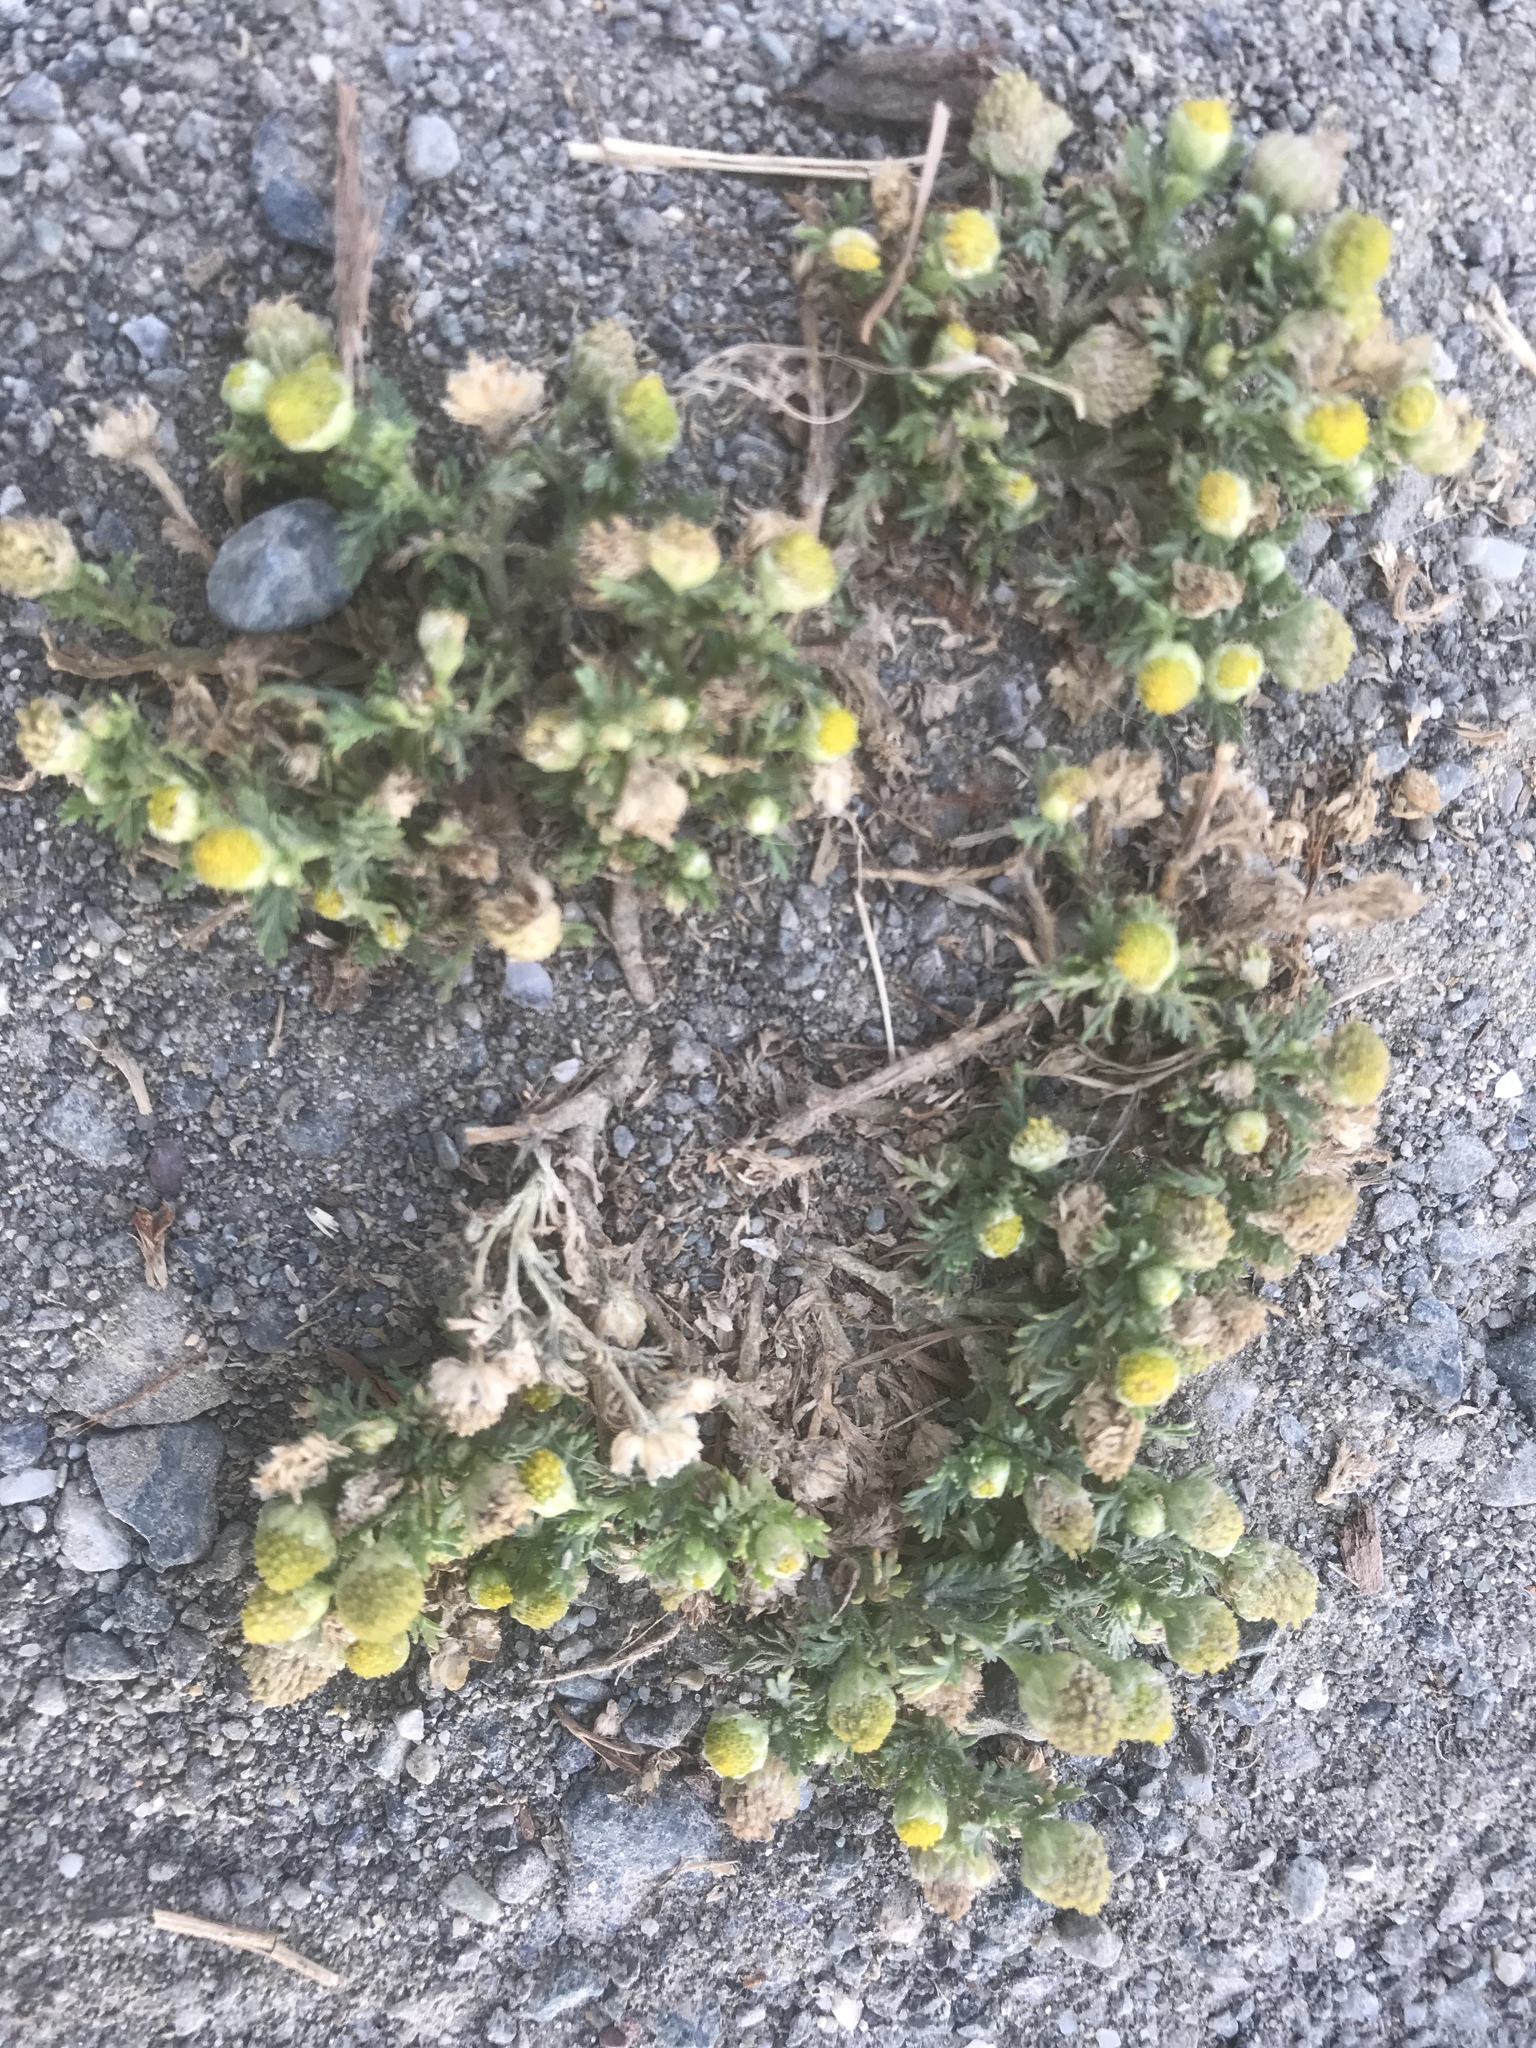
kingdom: Plantae
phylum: Tracheophyta
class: Magnoliopsida
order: Asterales
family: Asteraceae
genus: Matricaria
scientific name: Matricaria discoidea
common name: Disc mayweed
